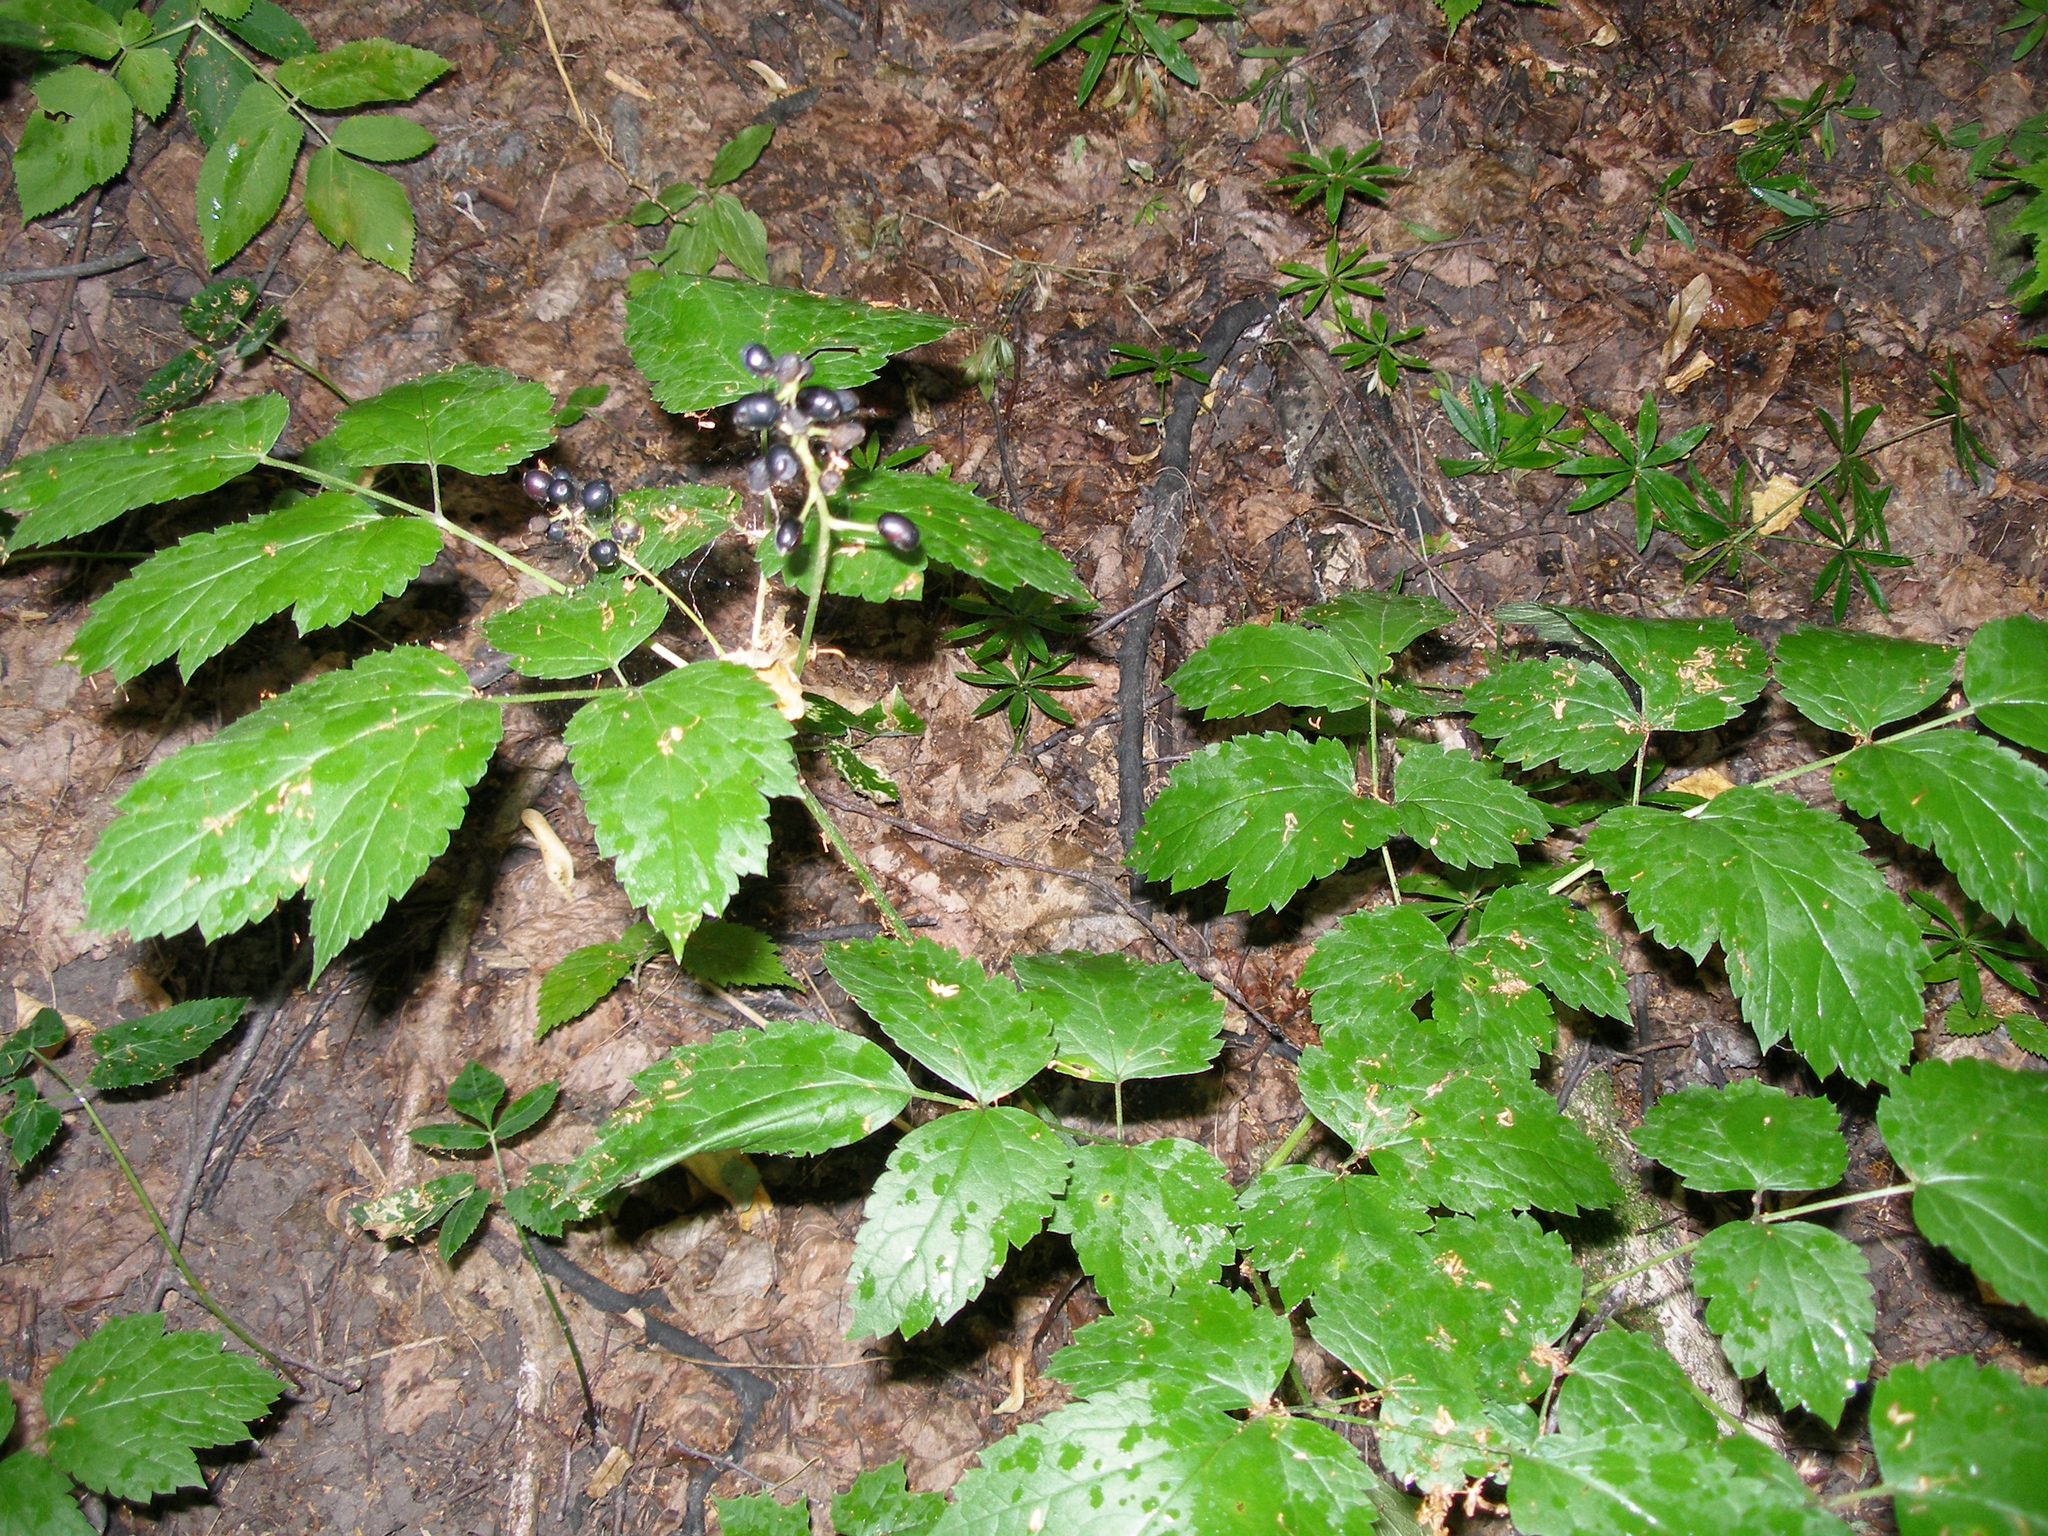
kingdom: Plantae
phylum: Tracheophyta
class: Magnoliopsida
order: Ranunculales
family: Ranunculaceae
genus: Actaea
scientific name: Actaea spicata
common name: Baneberry
